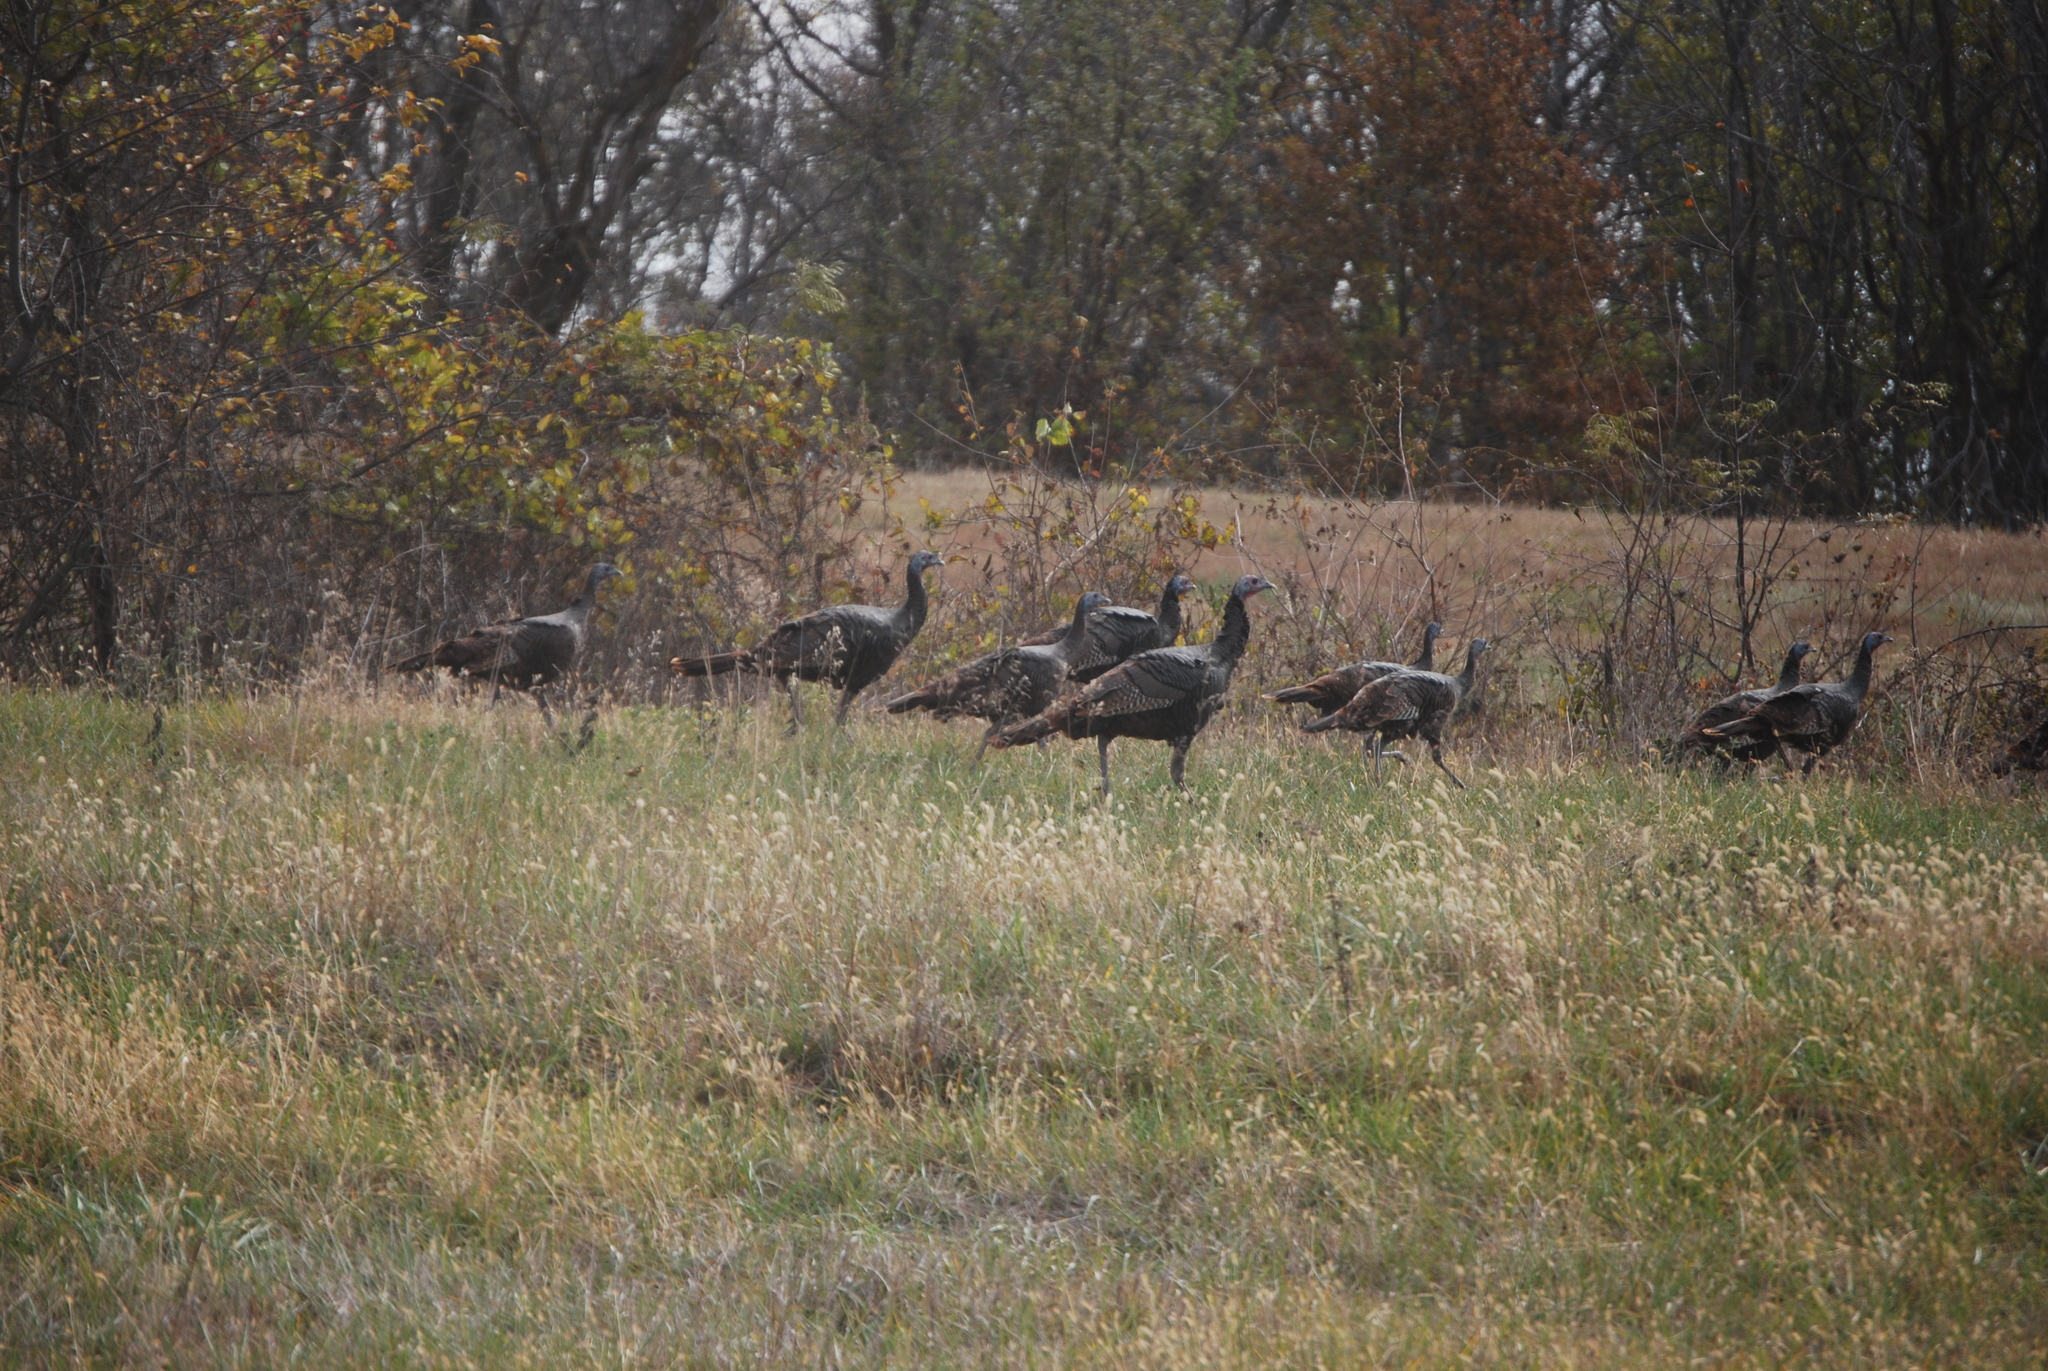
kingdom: Animalia
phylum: Chordata
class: Aves
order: Galliformes
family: Phasianidae
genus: Meleagris
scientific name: Meleagris gallopavo
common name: Wild turkey
